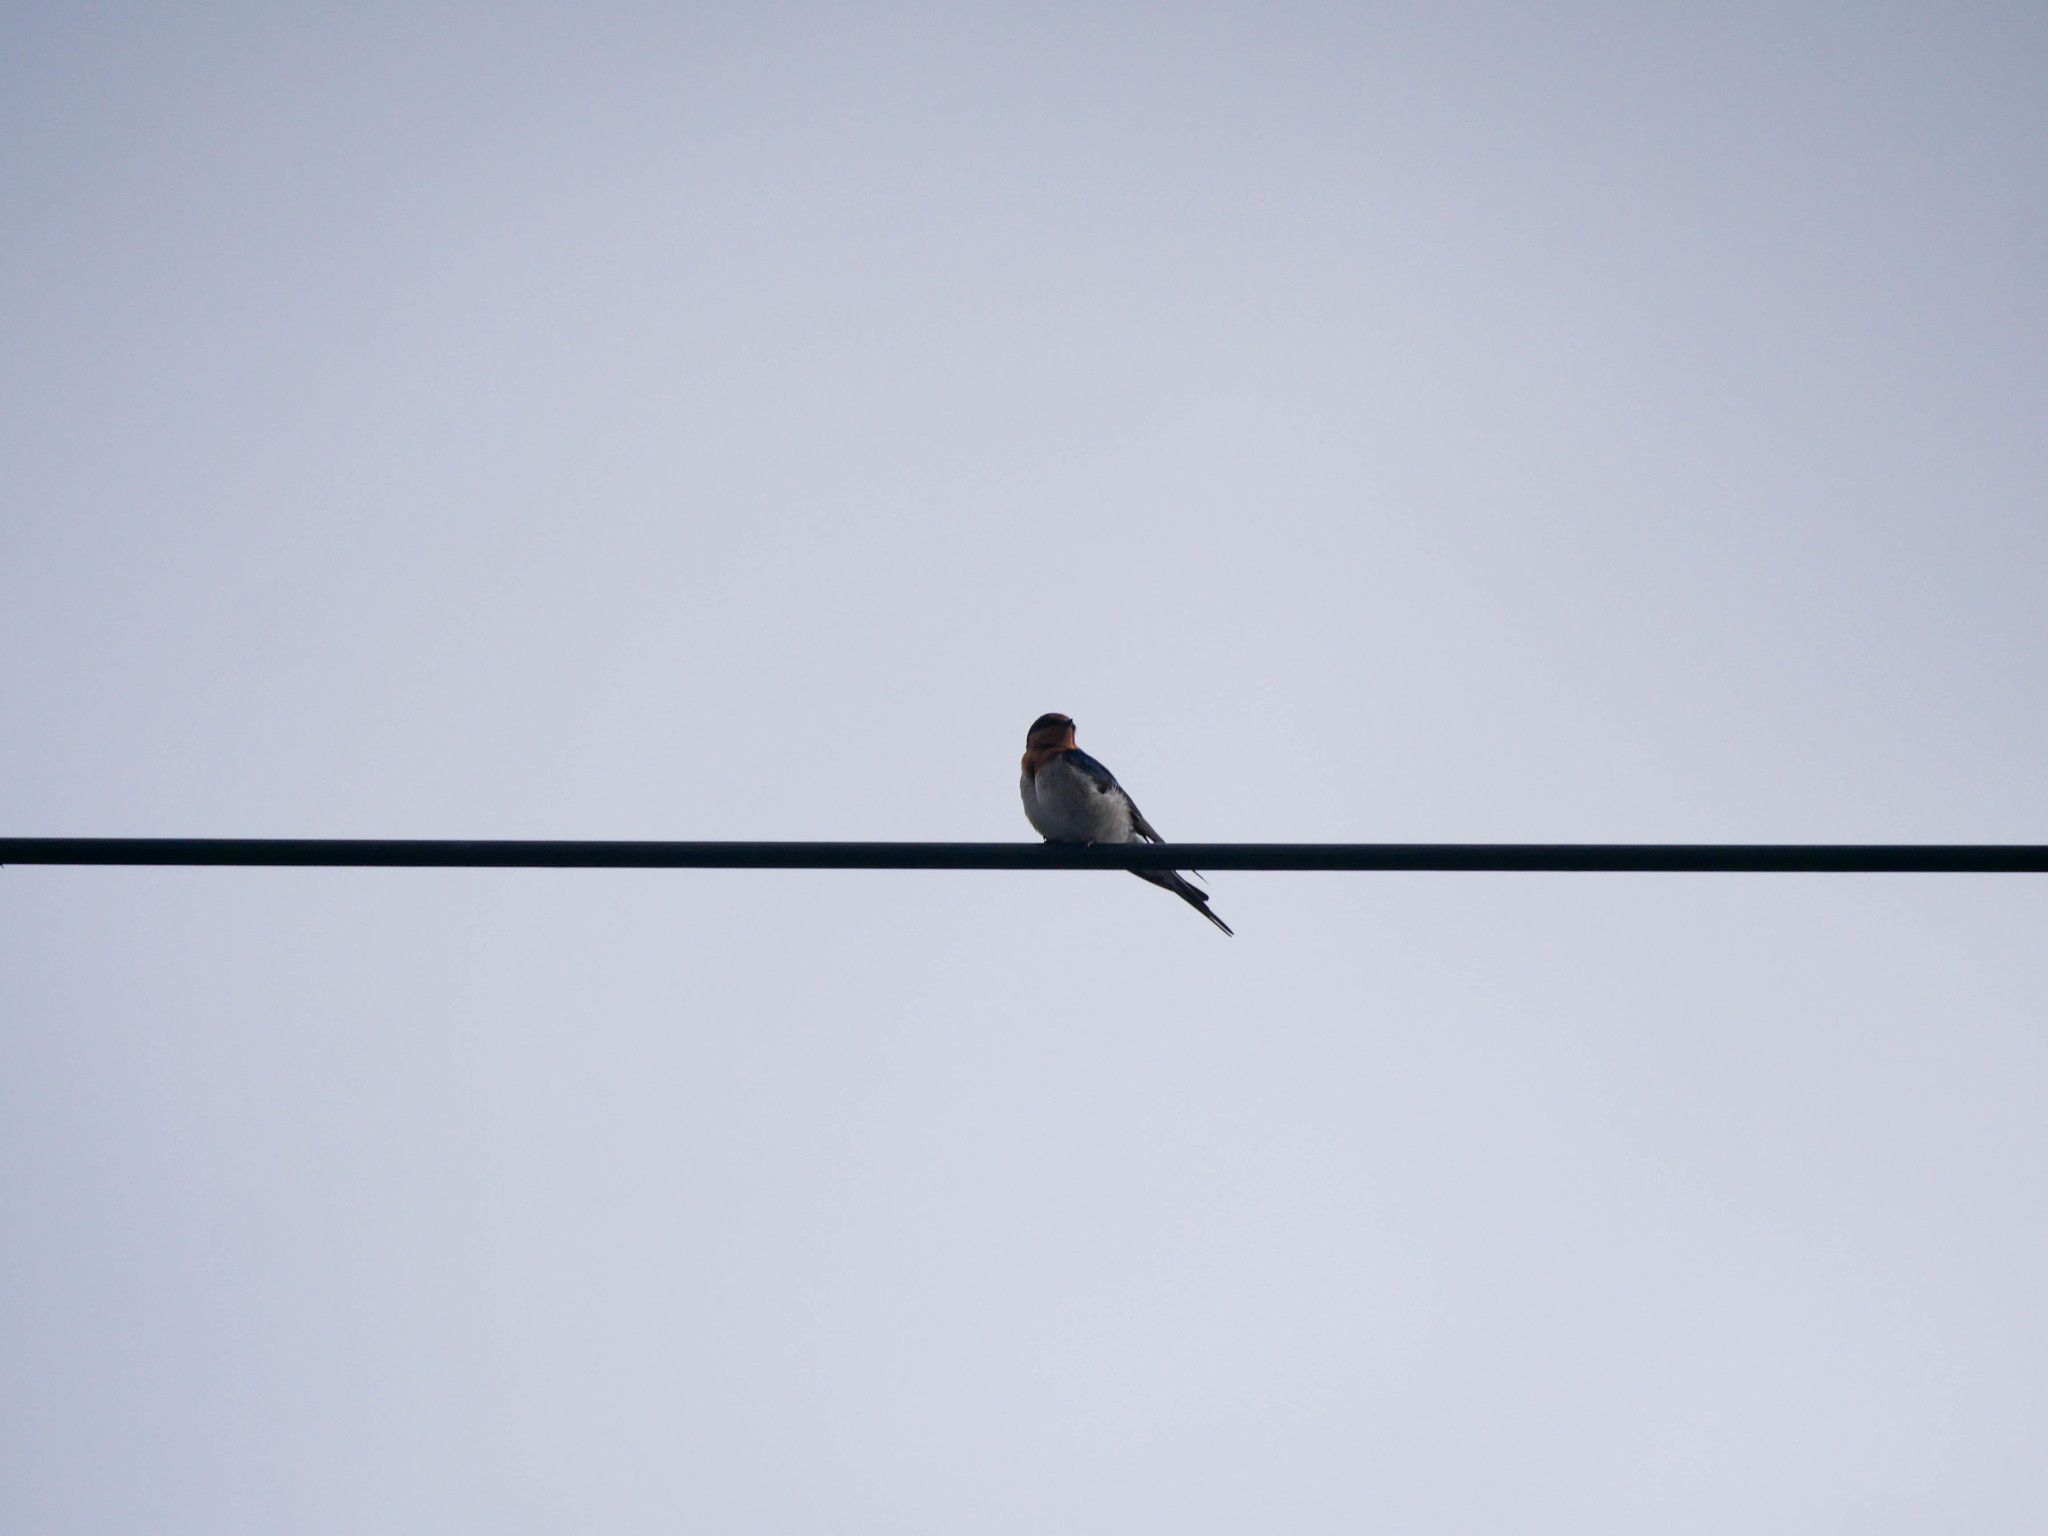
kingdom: Animalia
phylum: Chordata
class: Aves
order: Passeriformes
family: Hirundinidae
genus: Hirundo
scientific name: Hirundo neoxena
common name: Welcome swallow
